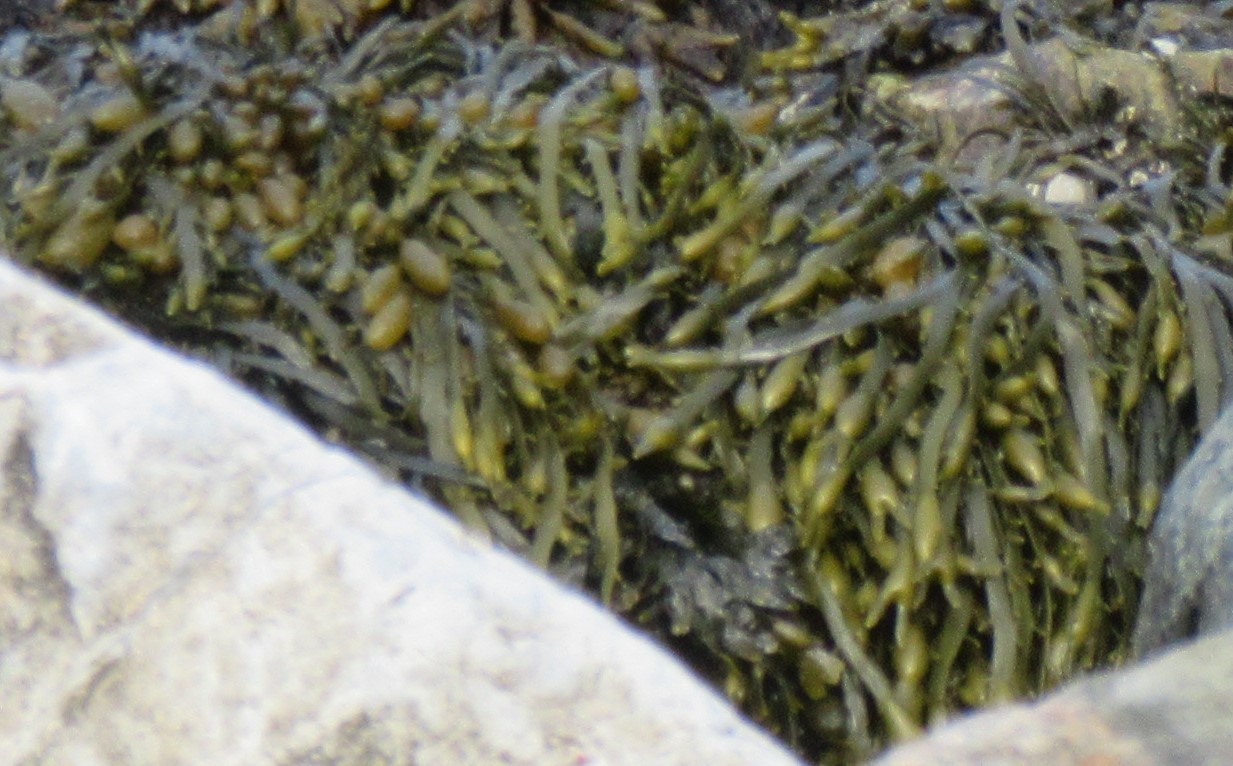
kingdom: Chromista
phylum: Ochrophyta
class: Phaeophyceae
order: Fucales
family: Fucaceae
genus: Ascophyllum
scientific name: Ascophyllum nodosum
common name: Knotted wrack
